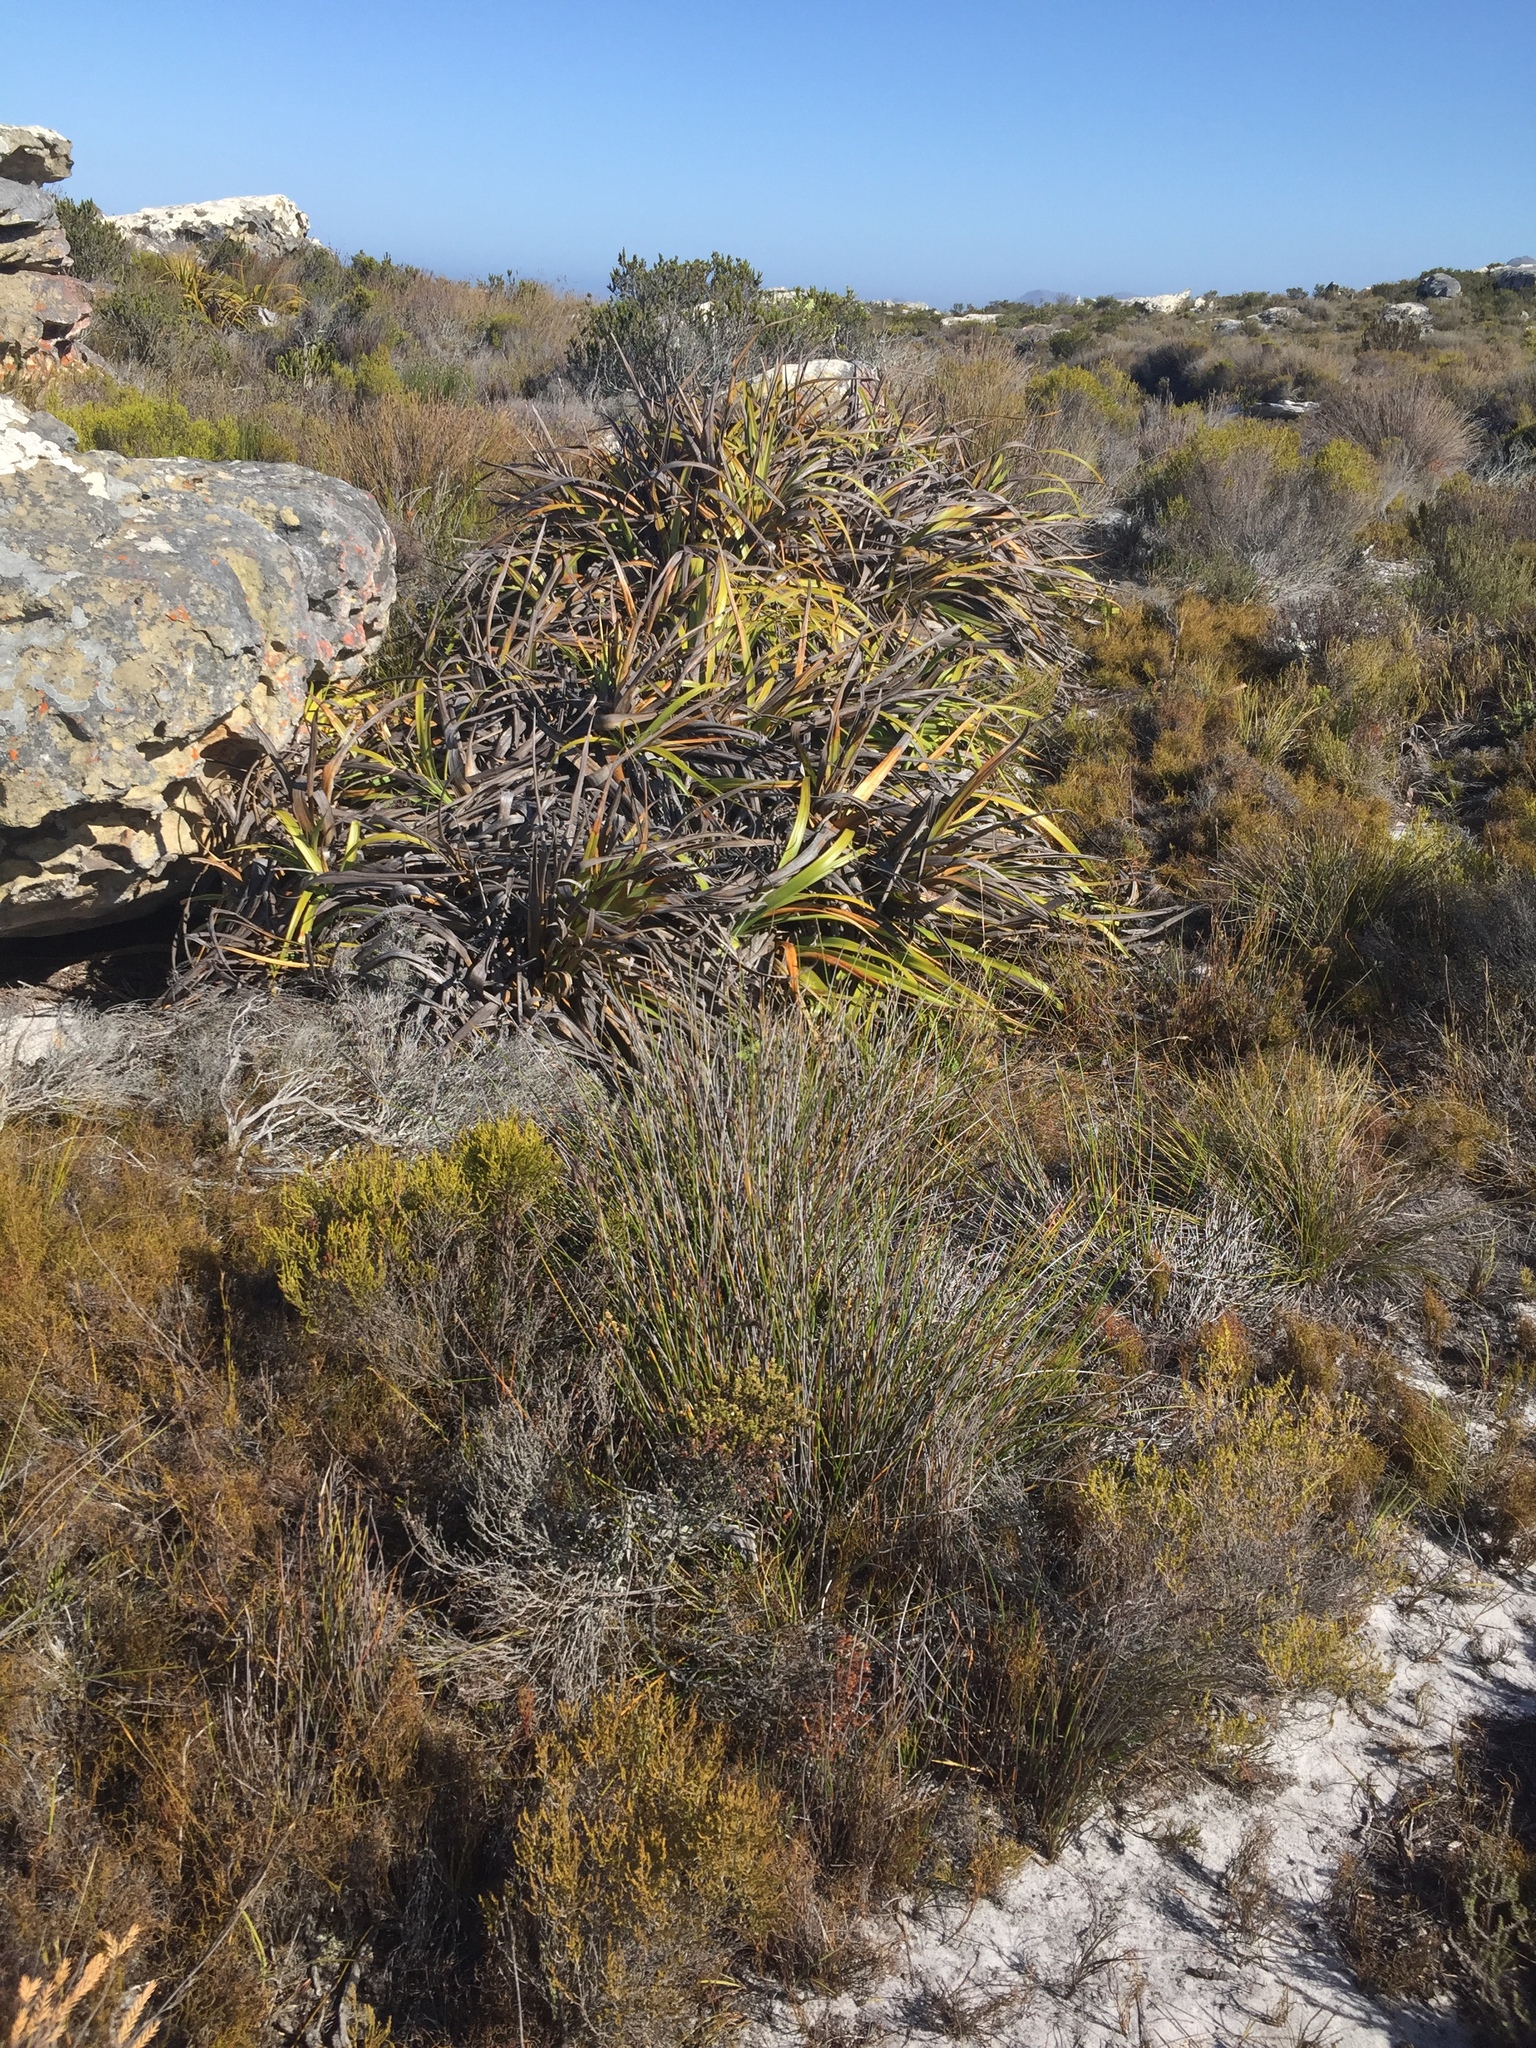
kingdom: Plantae
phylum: Tracheophyta
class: Liliopsida
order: Poales
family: Cyperaceae
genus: Tetraria
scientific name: Tetraria thermalis
